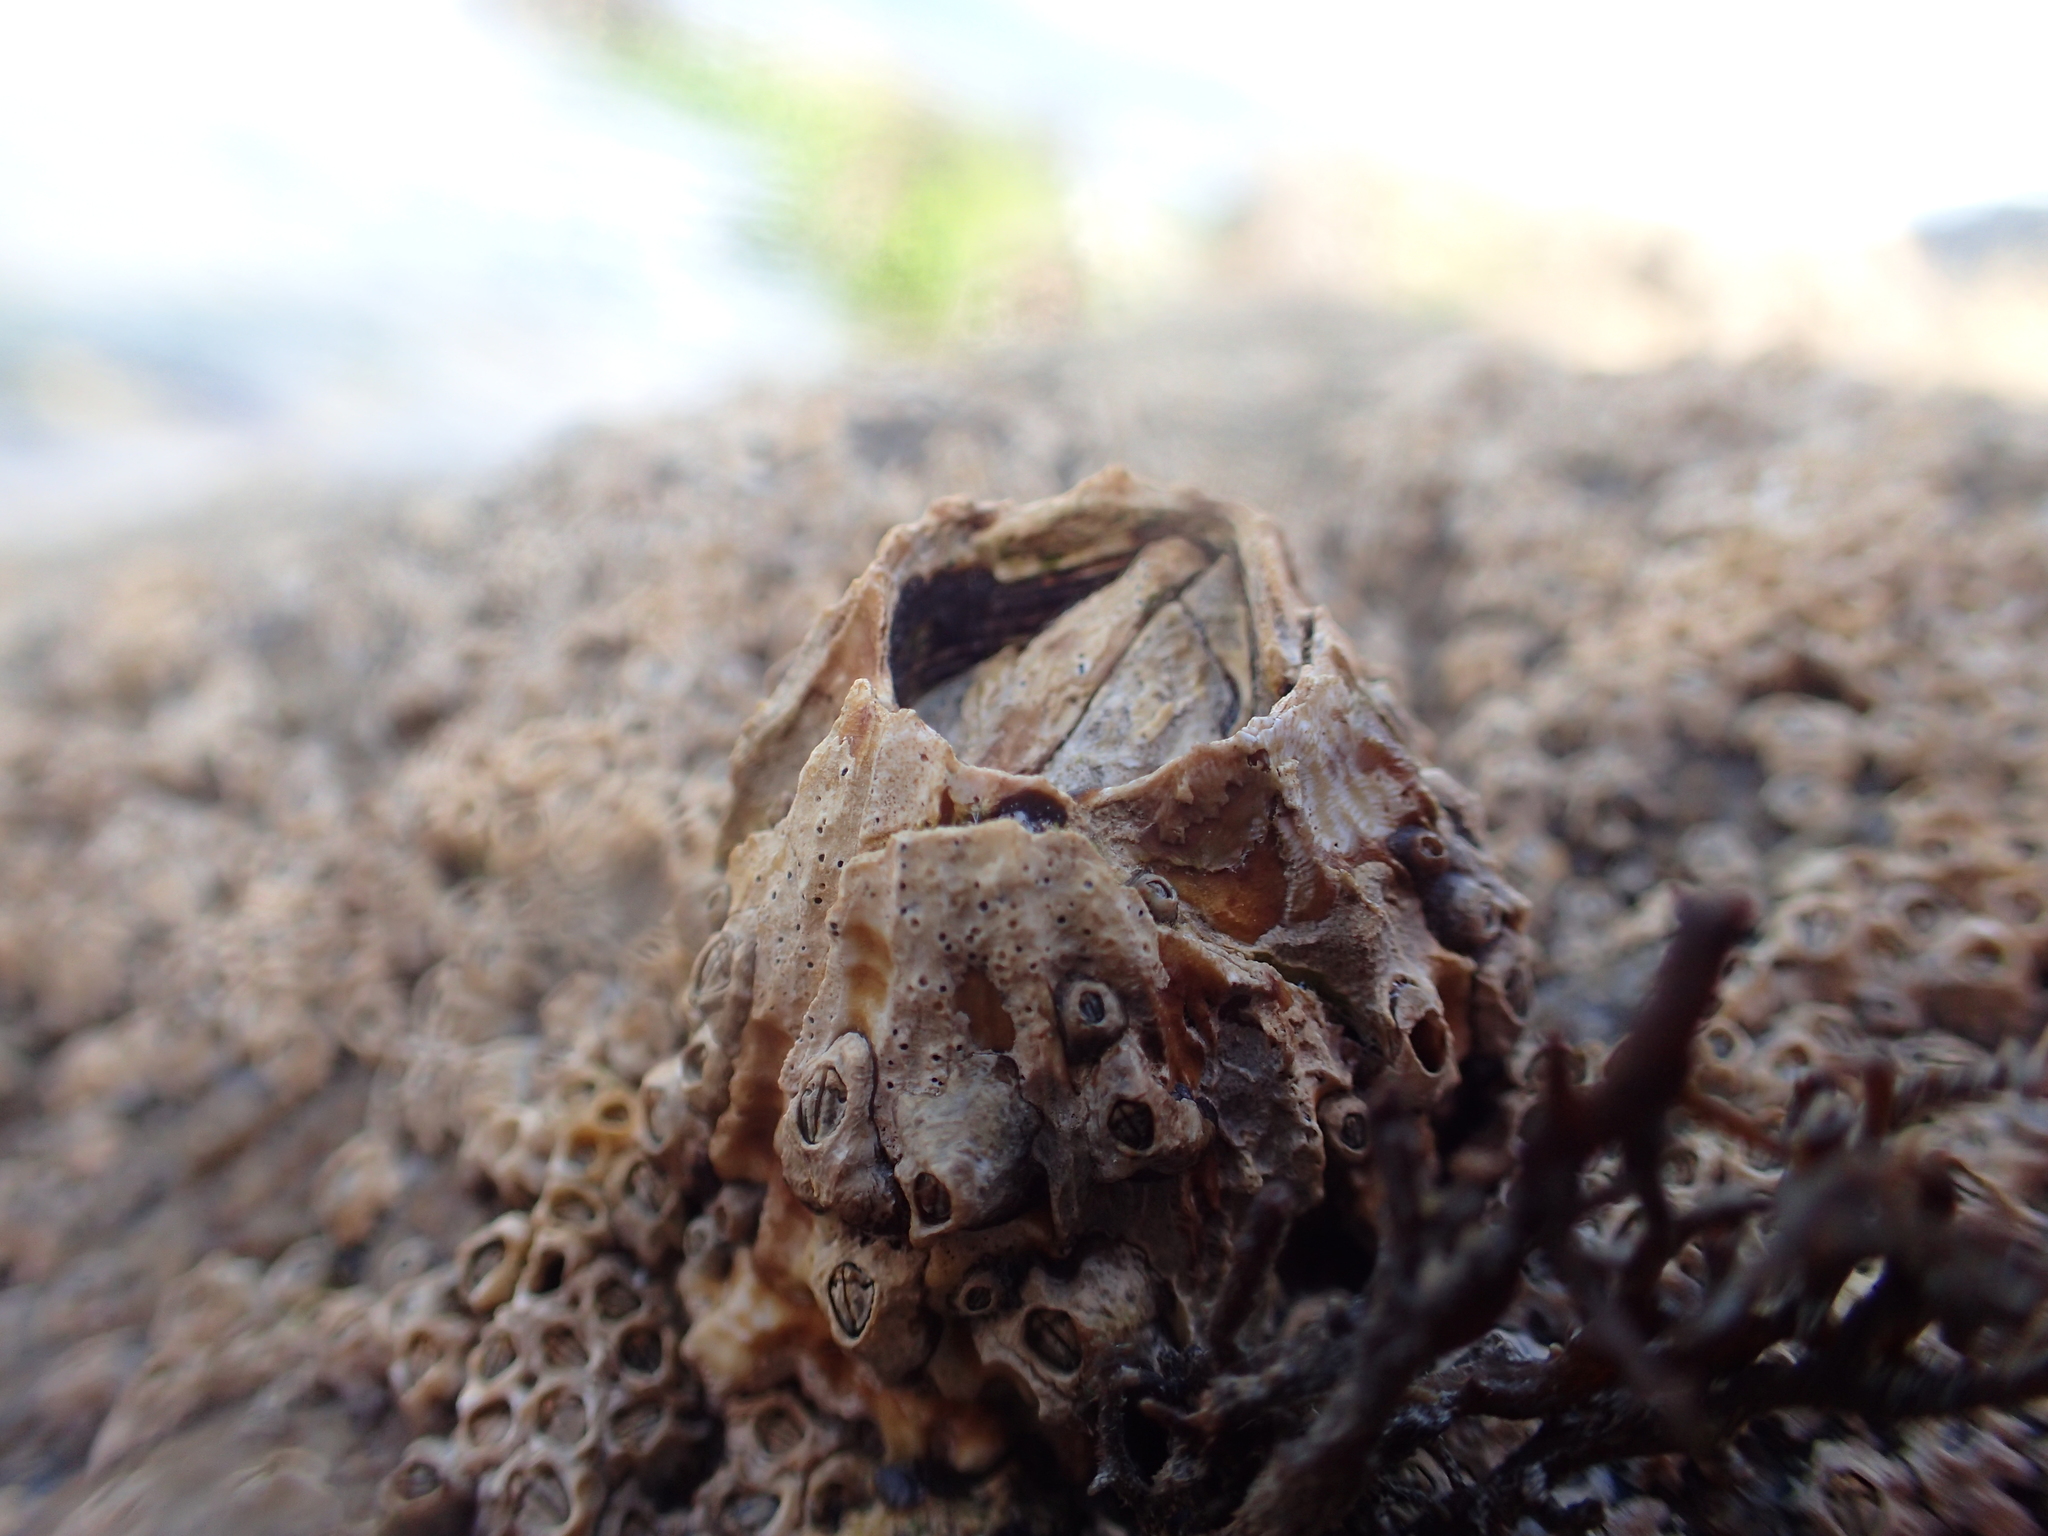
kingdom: Animalia
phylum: Arthropoda
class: Maxillopoda
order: Sessilia
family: Tetraclitidae
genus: Epopella
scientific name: Epopella plicata
